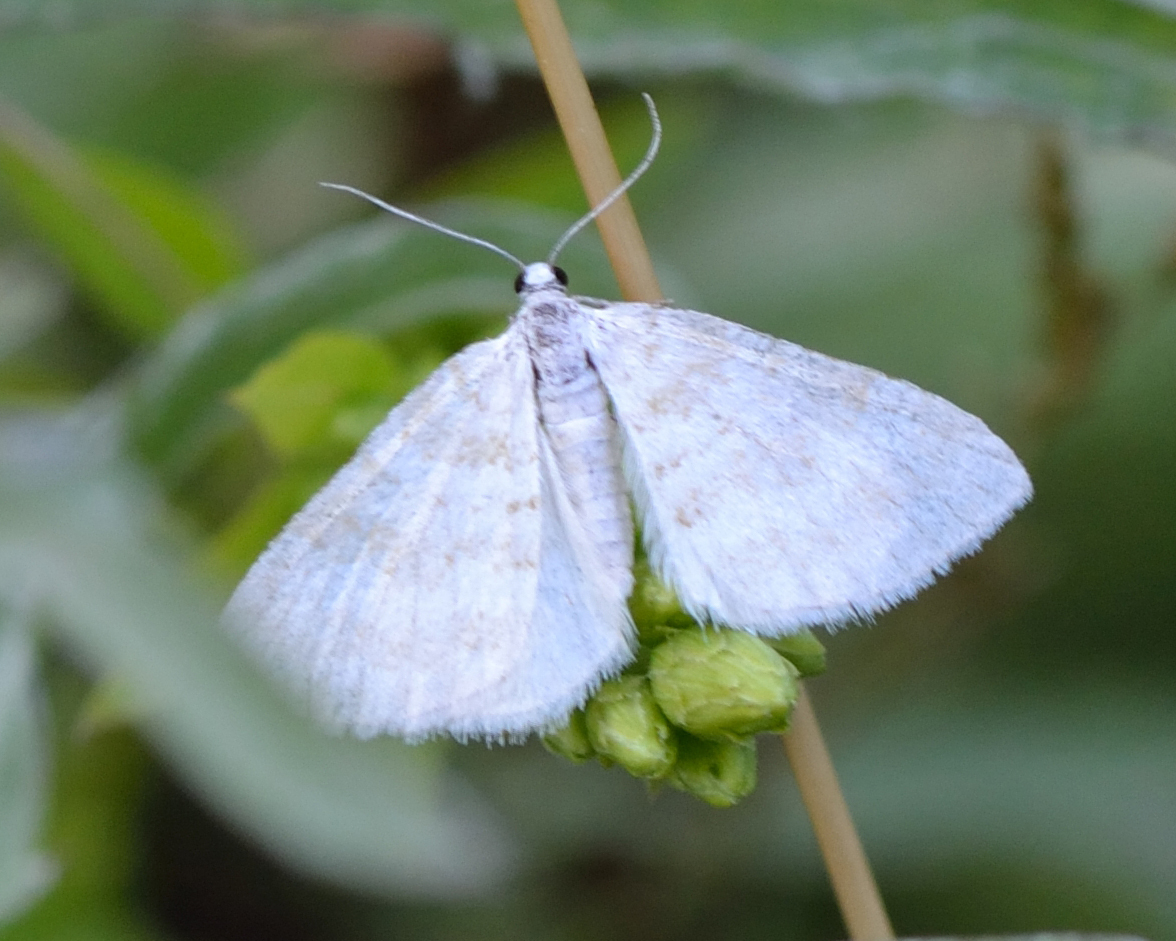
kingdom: Animalia
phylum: Arthropoda
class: Insecta
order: Lepidoptera
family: Geometridae
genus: Perizoma
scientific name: Perizoma albulata
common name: Grass rivulet
